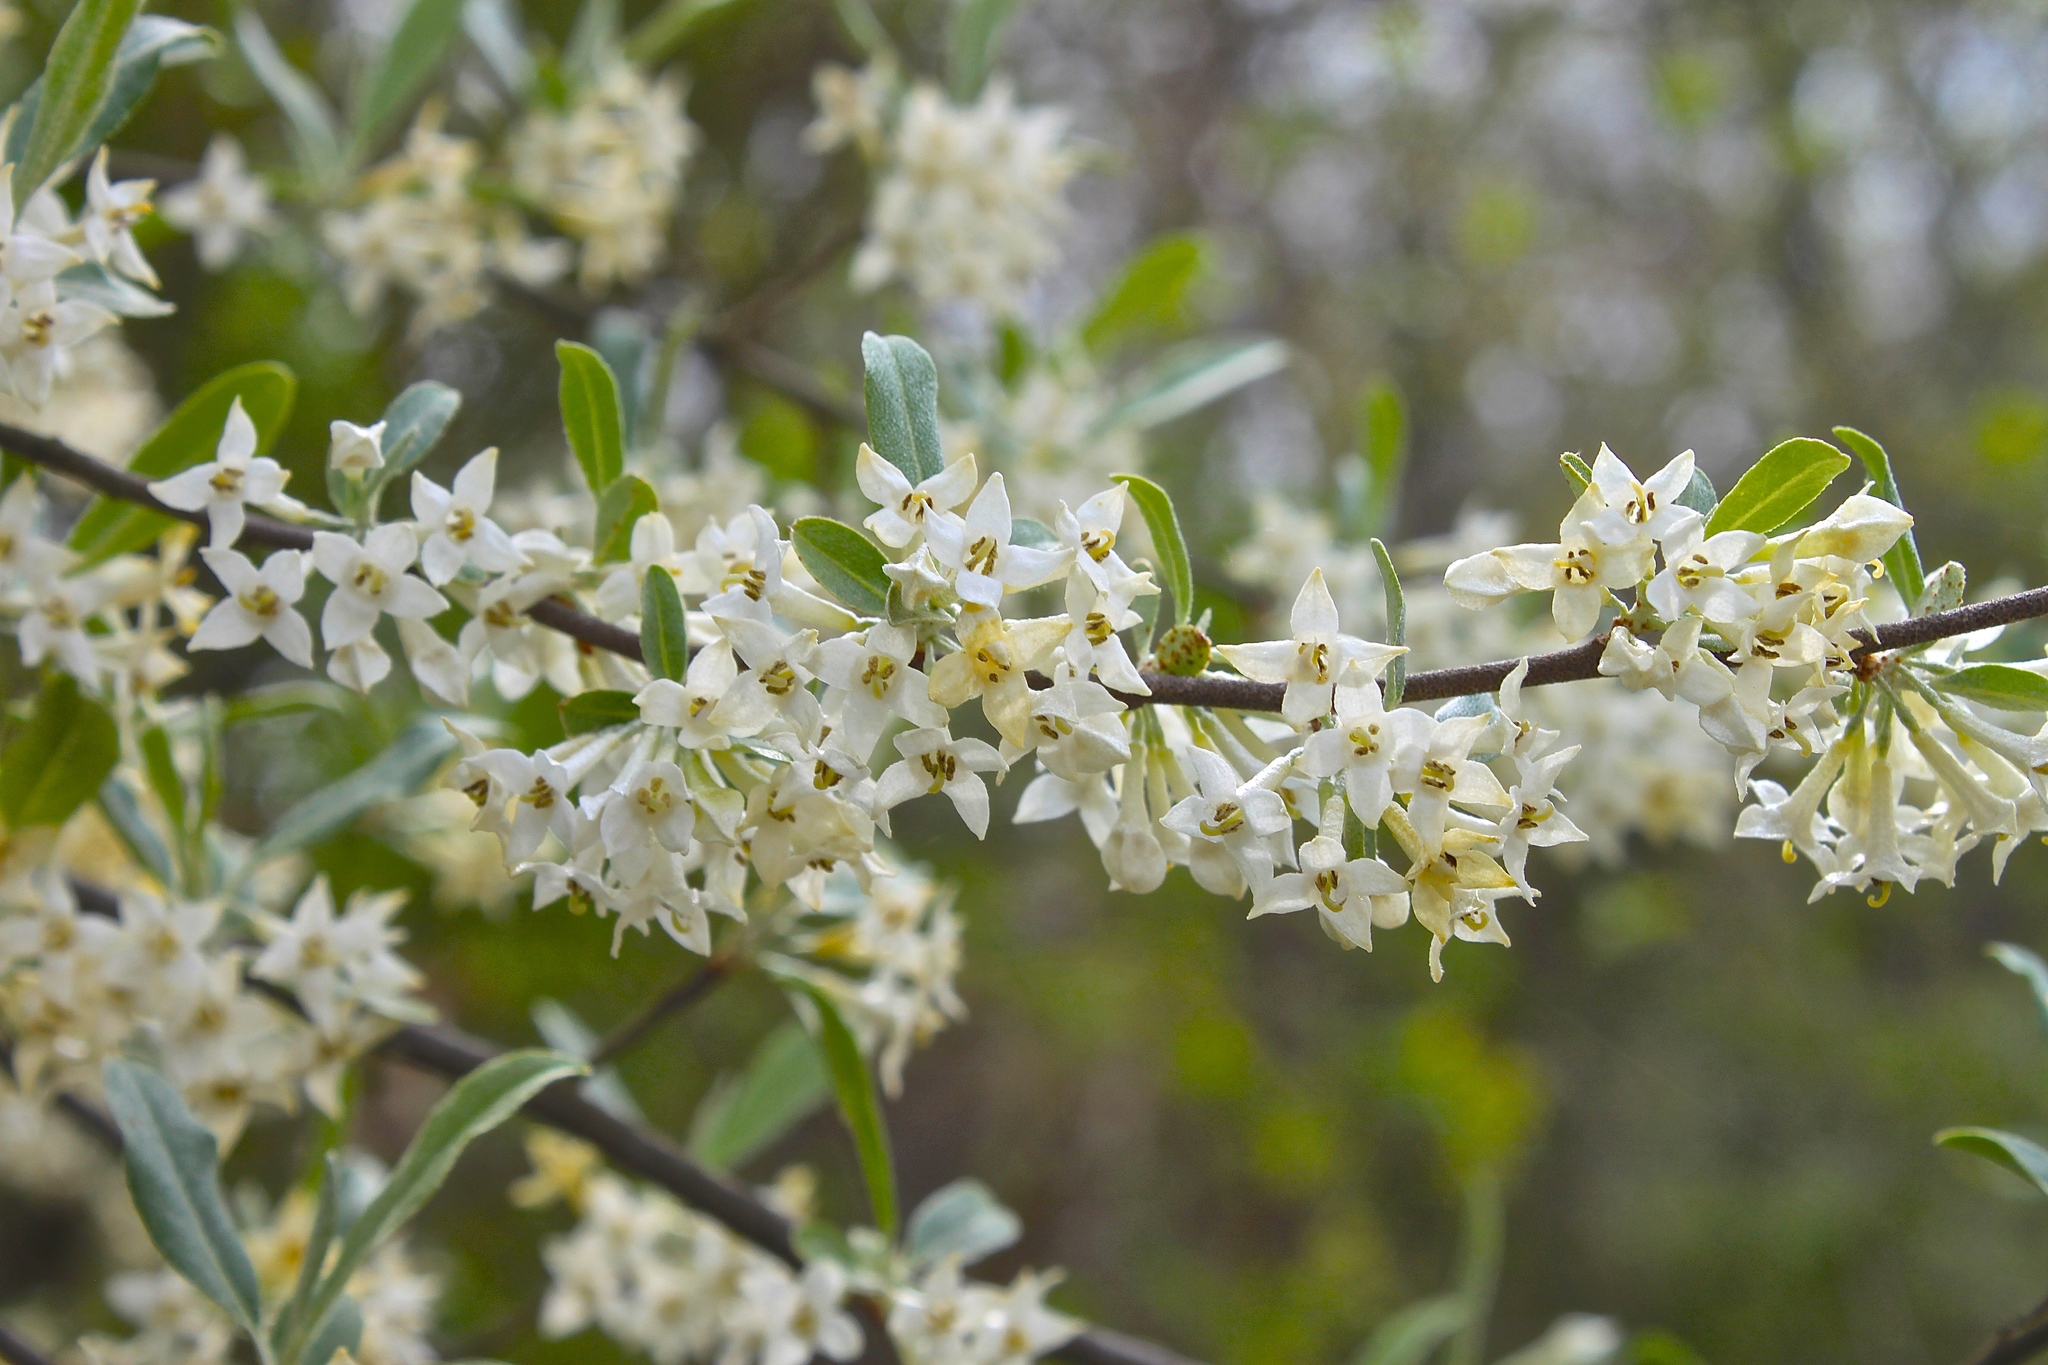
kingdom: Plantae
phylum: Tracheophyta
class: Magnoliopsida
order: Rosales
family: Elaeagnaceae
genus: Elaeagnus
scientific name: Elaeagnus umbellata
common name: Autumn olive
